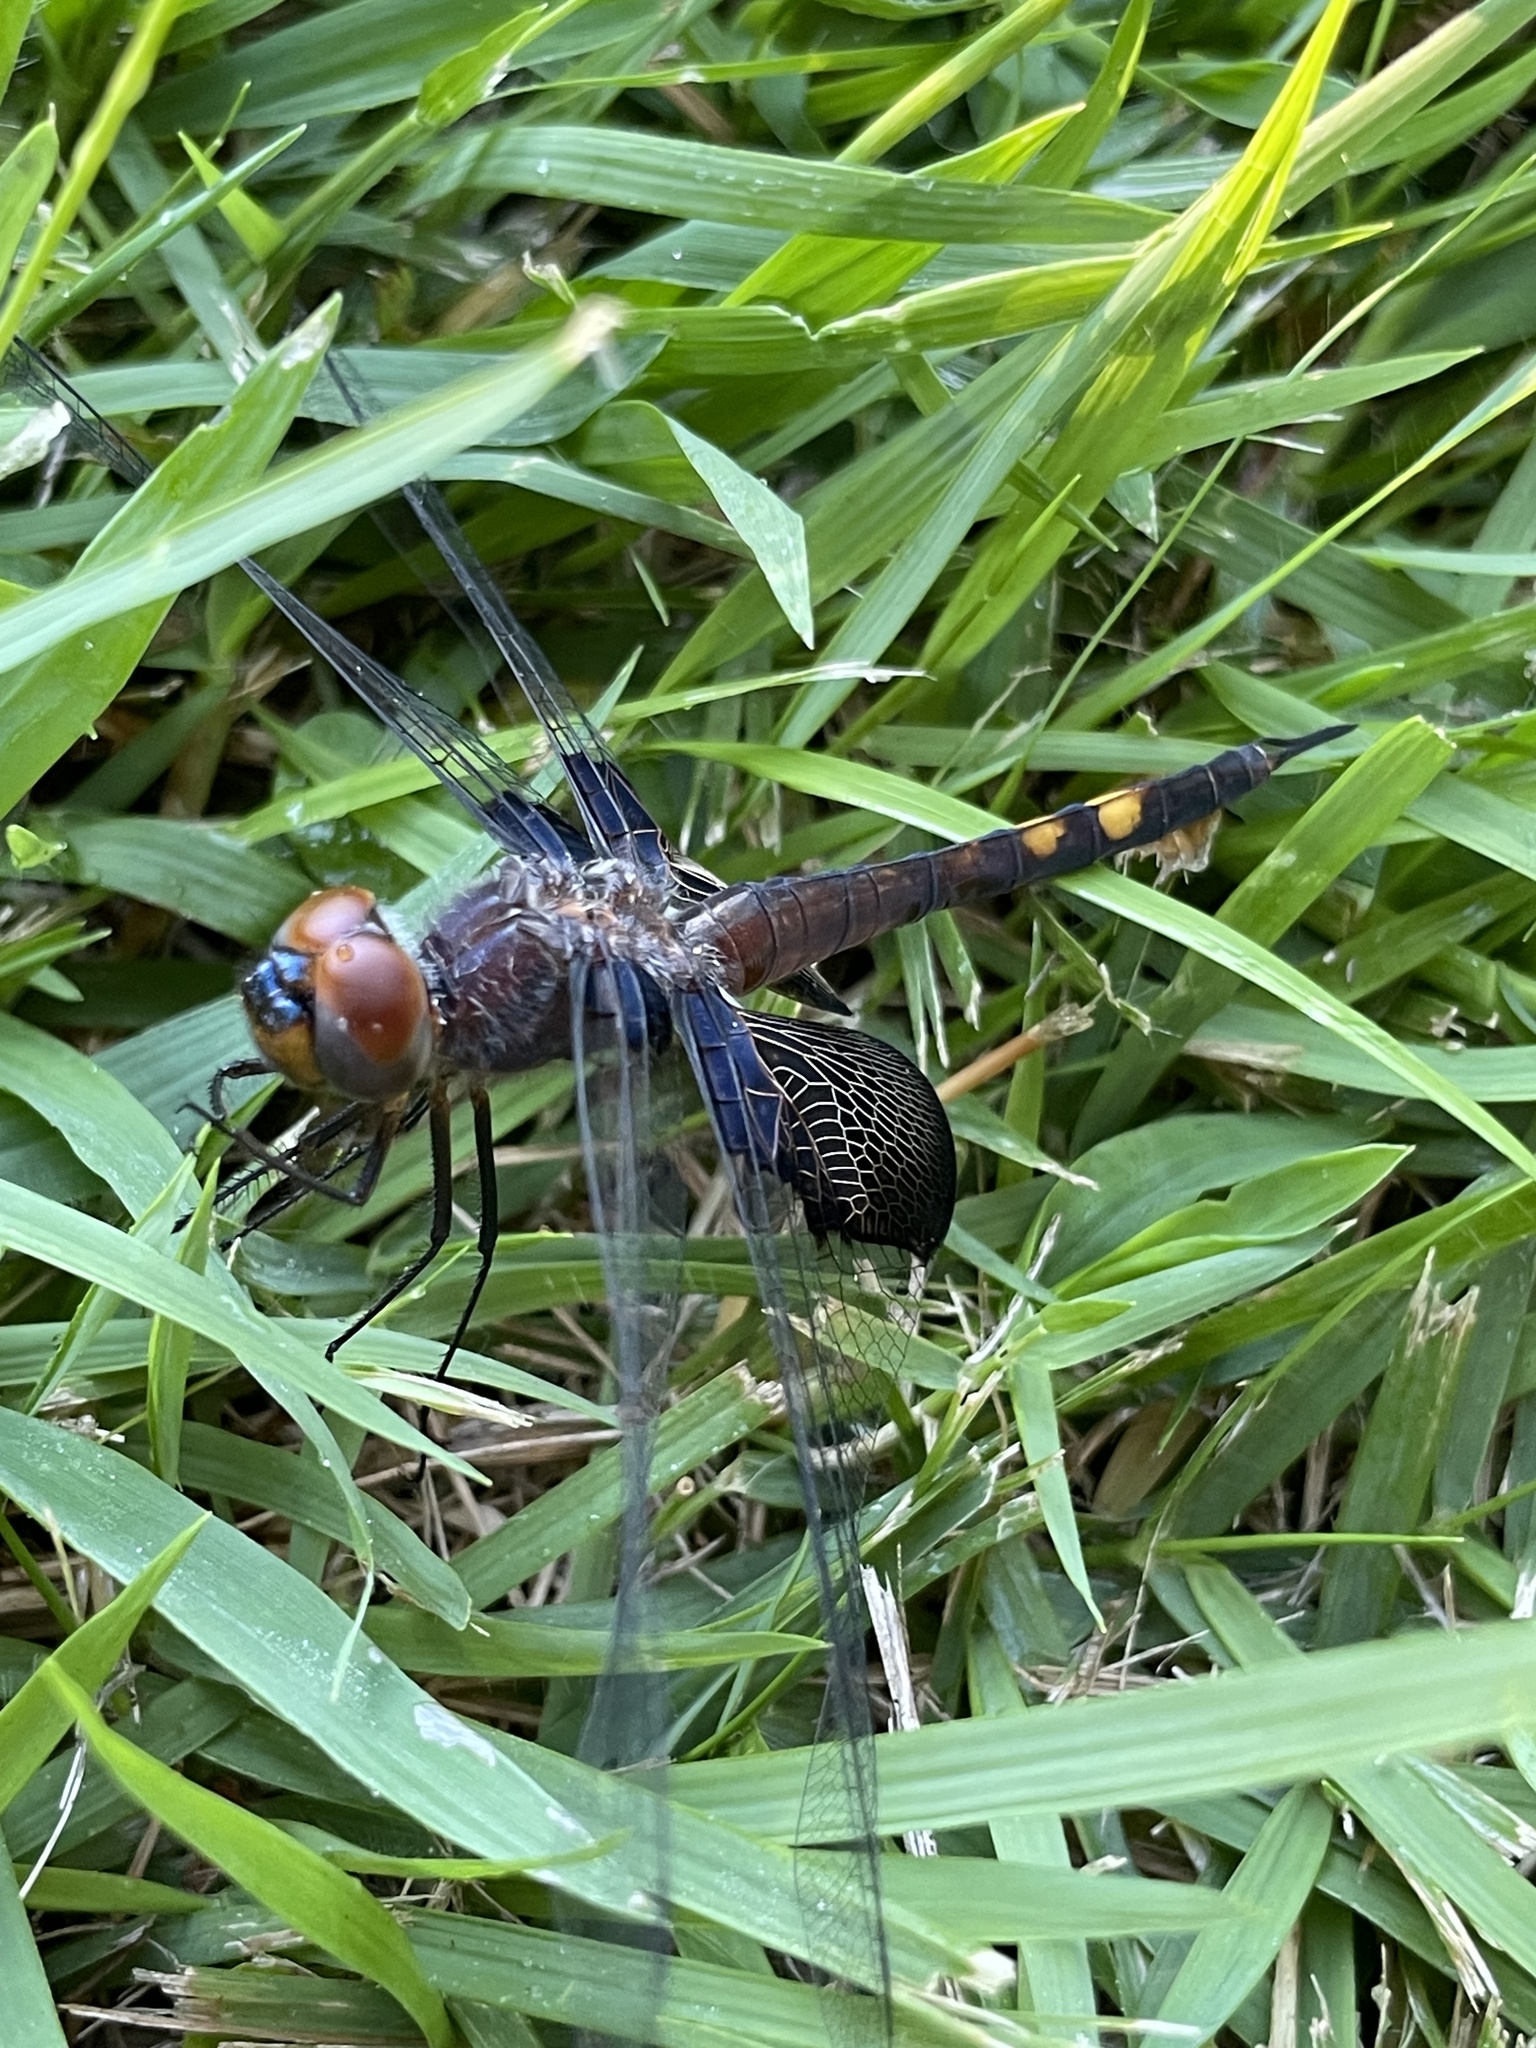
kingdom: Animalia
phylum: Arthropoda
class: Insecta
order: Odonata
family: Libellulidae
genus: Tramea
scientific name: Tramea lacerata
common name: Black saddlebags
